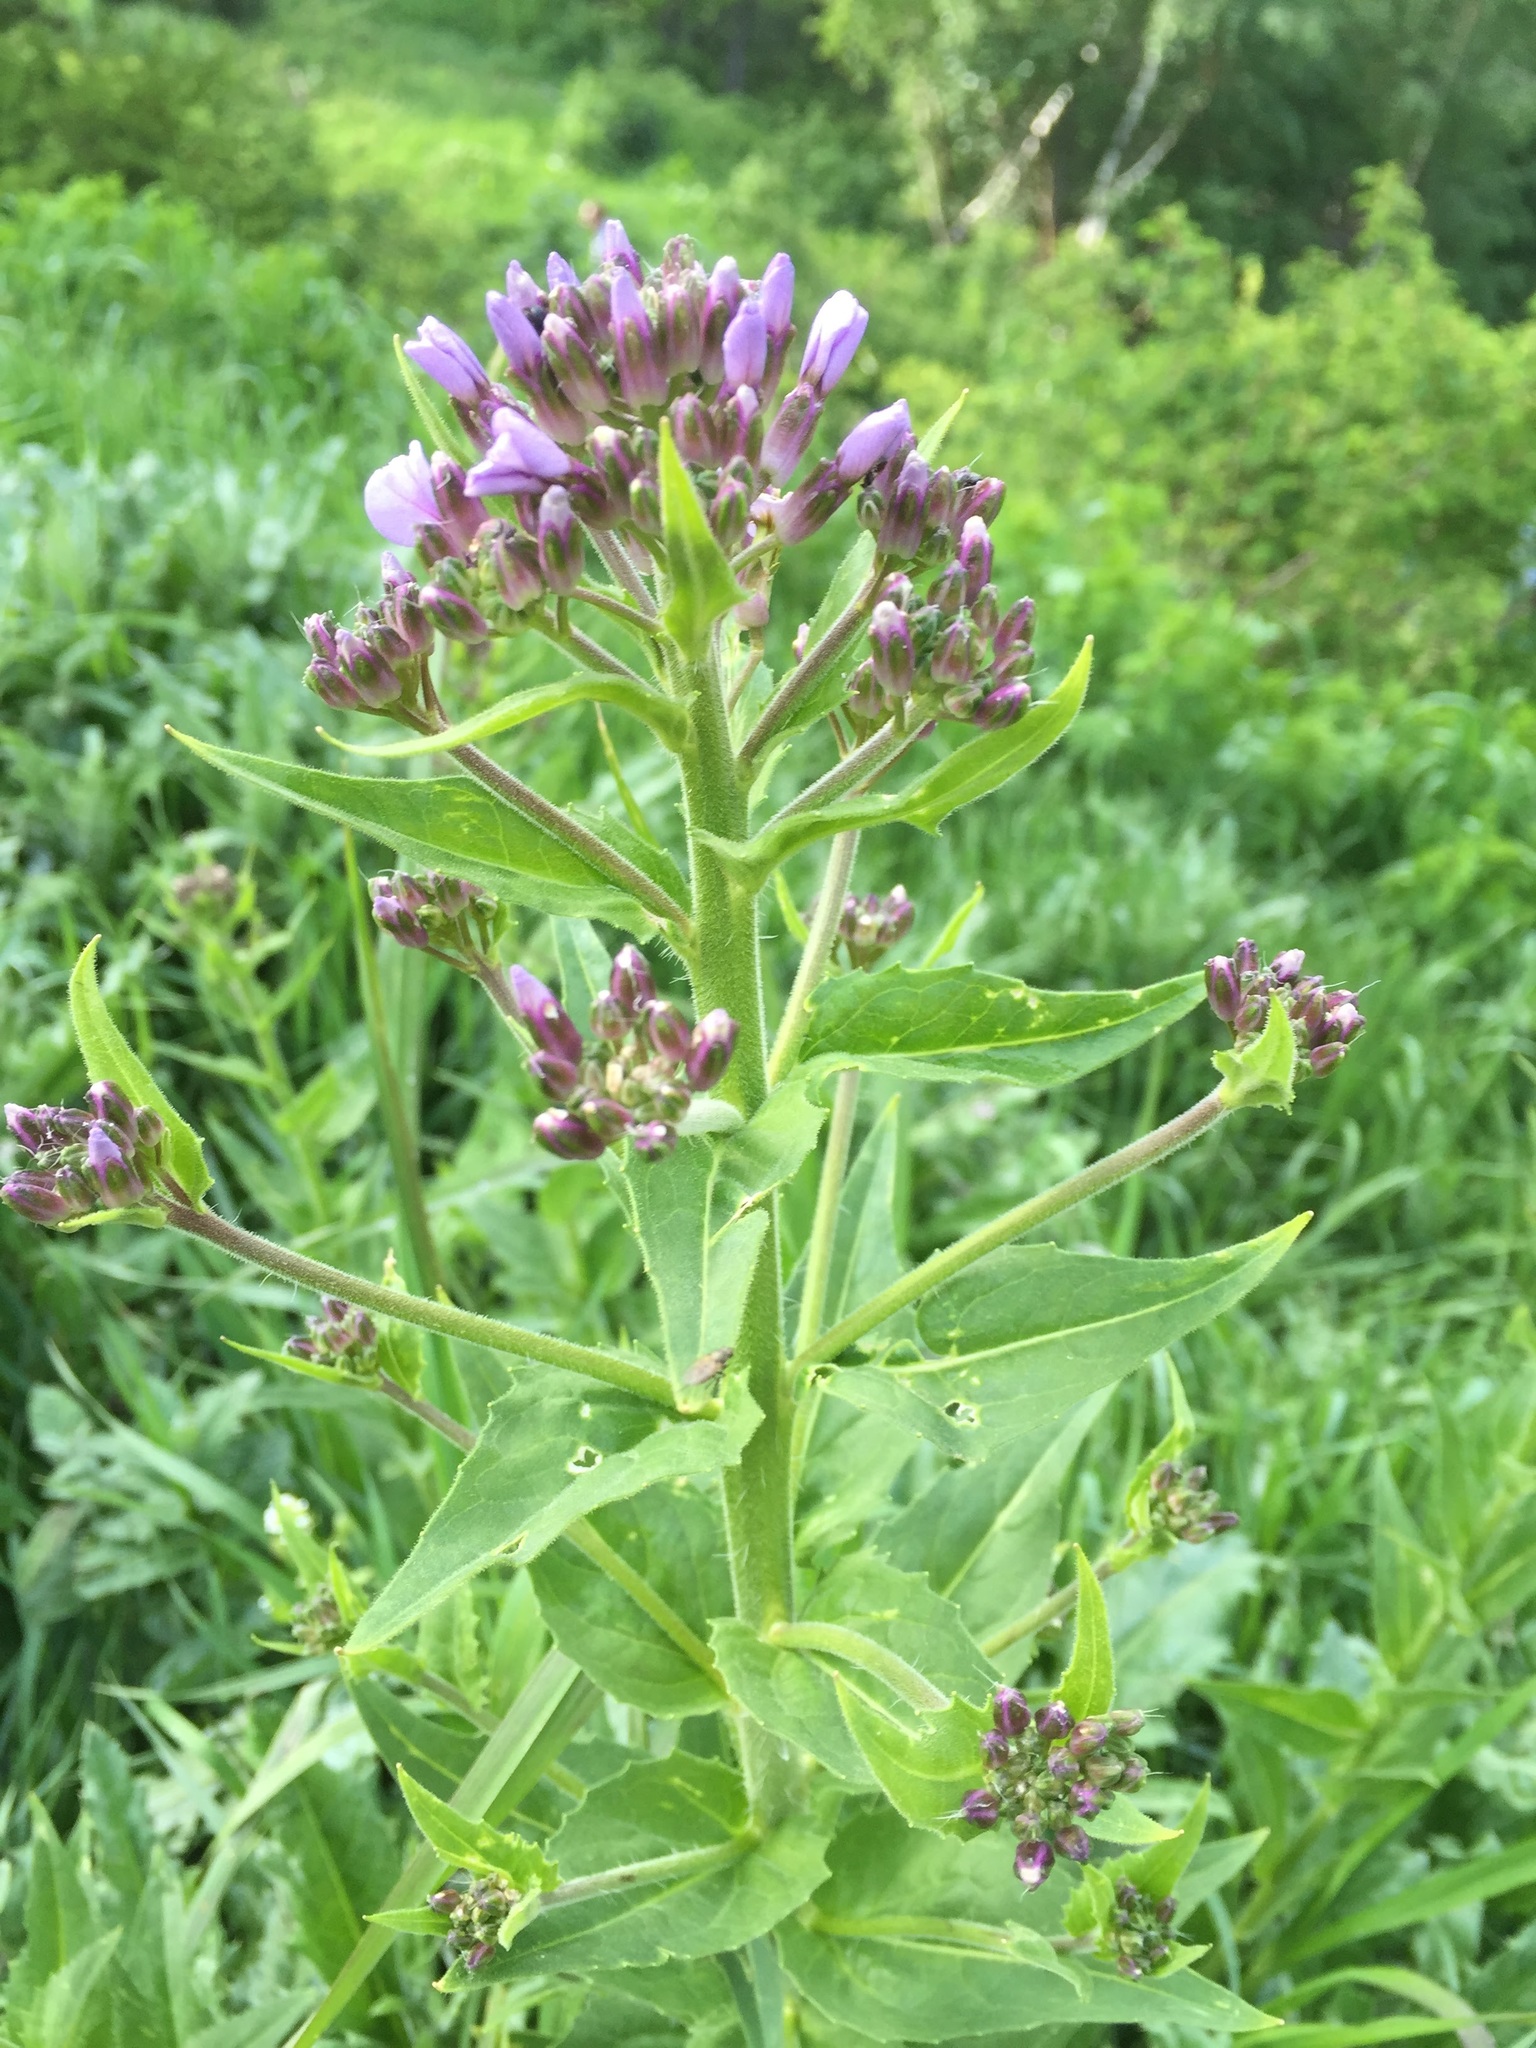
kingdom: Plantae
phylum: Tracheophyta
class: Magnoliopsida
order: Brassicales
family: Brassicaceae
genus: Hesperis
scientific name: Hesperis matronalis
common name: Dame's-violet
